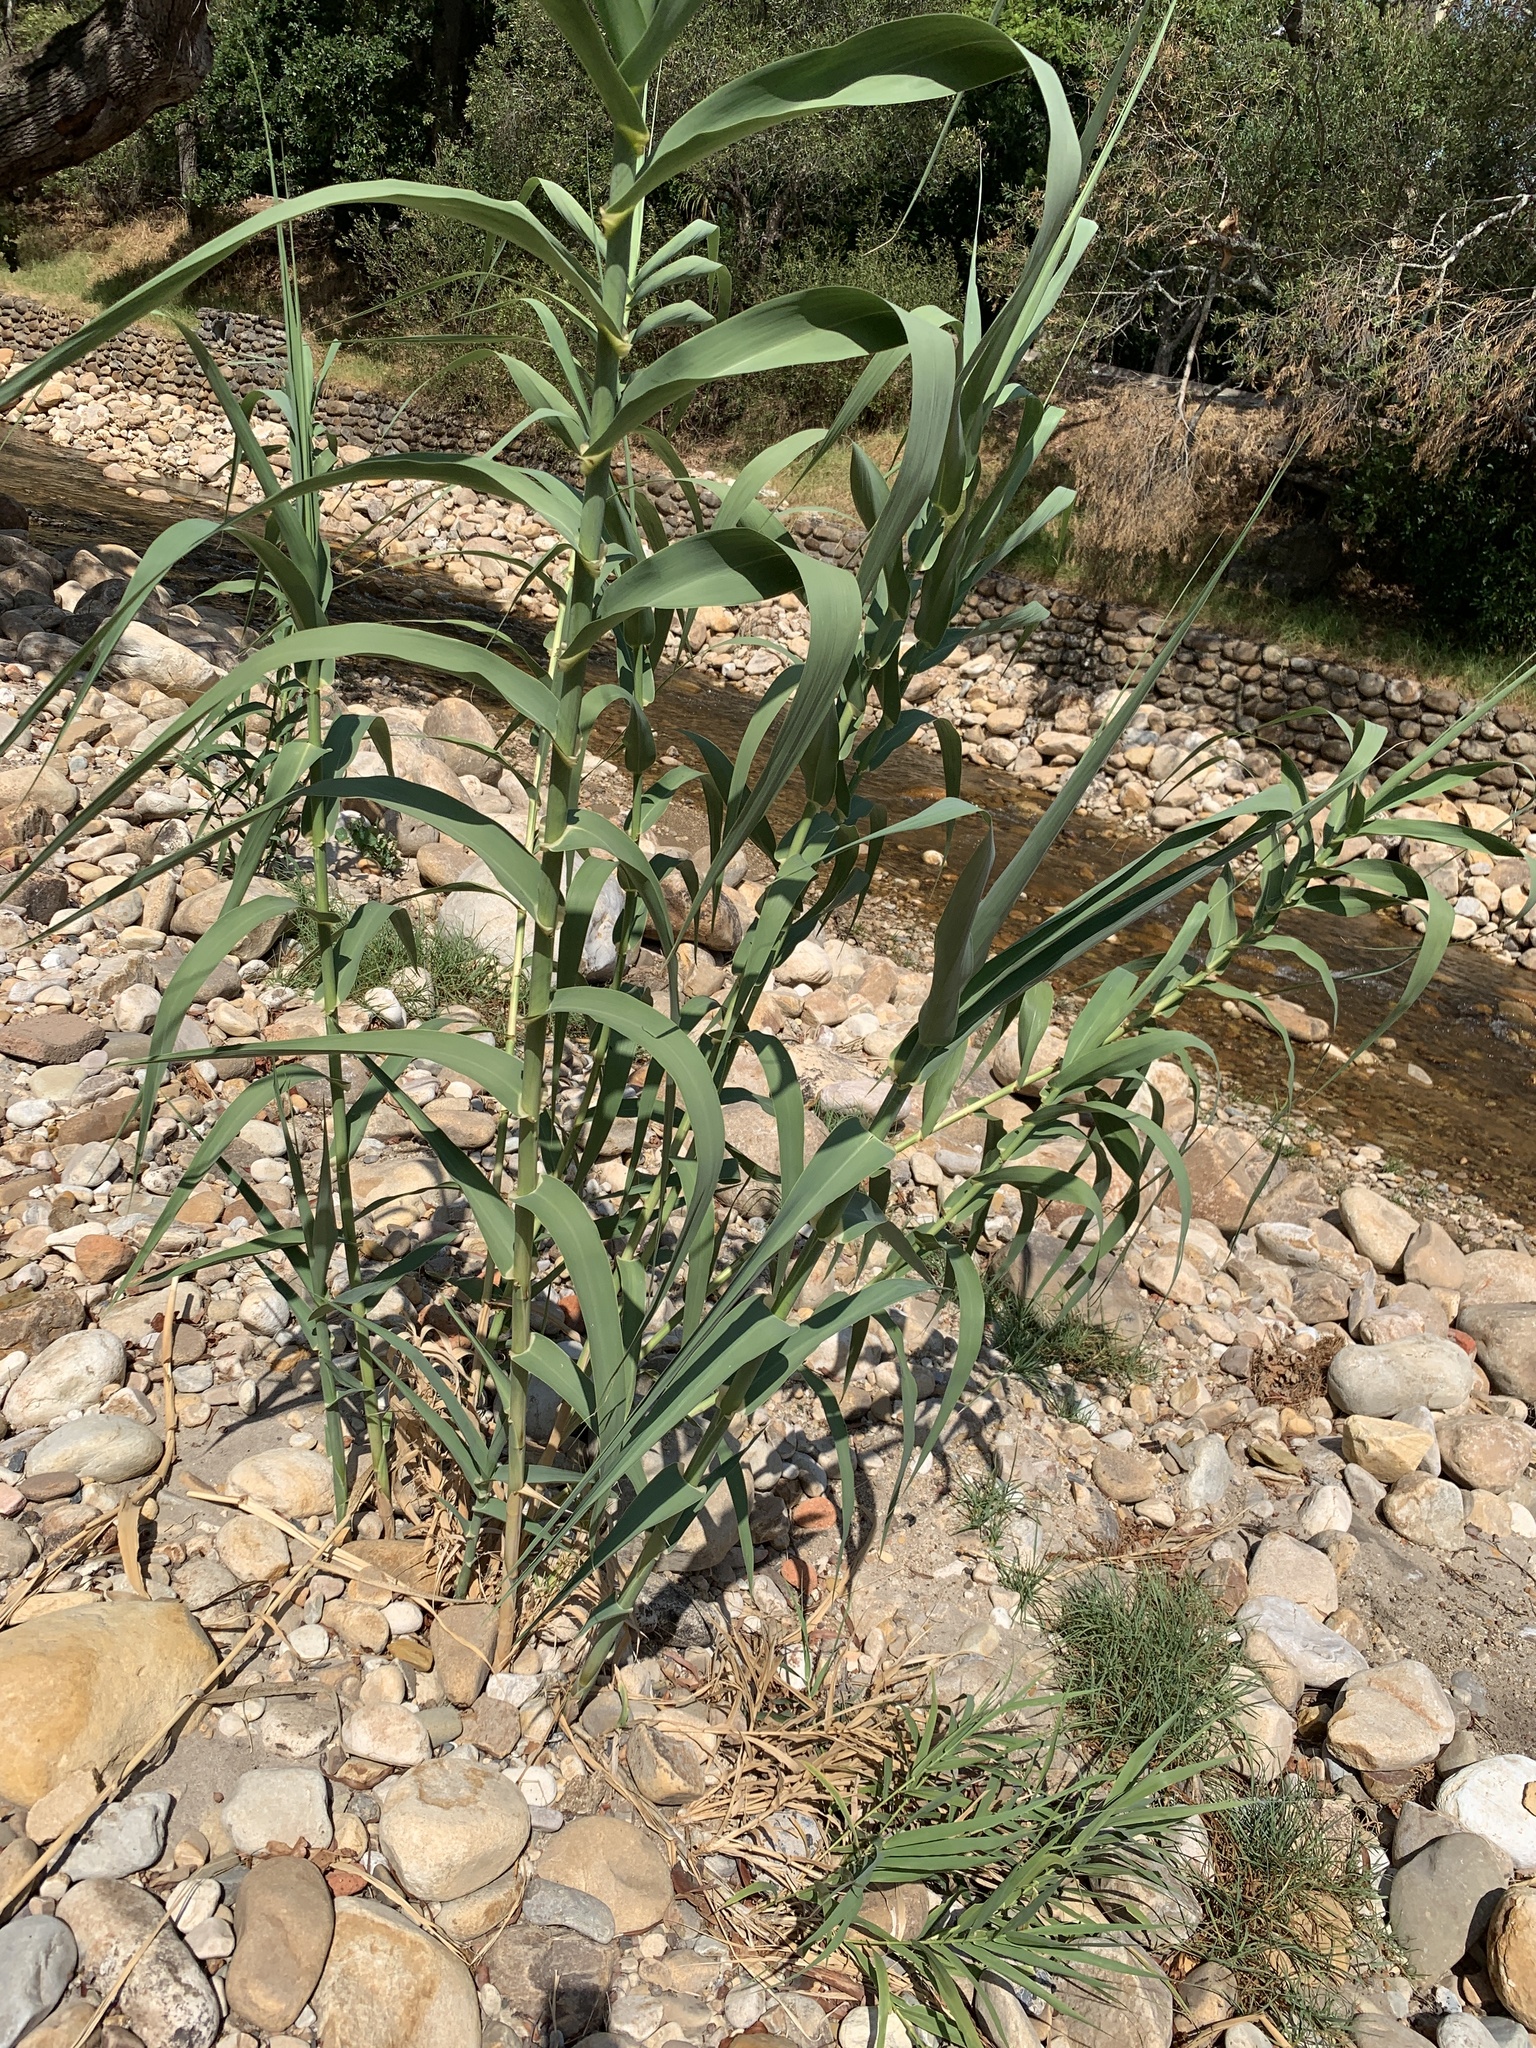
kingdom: Plantae
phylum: Tracheophyta
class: Liliopsida
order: Poales
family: Poaceae
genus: Arundo
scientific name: Arundo donax
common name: Giant reed
